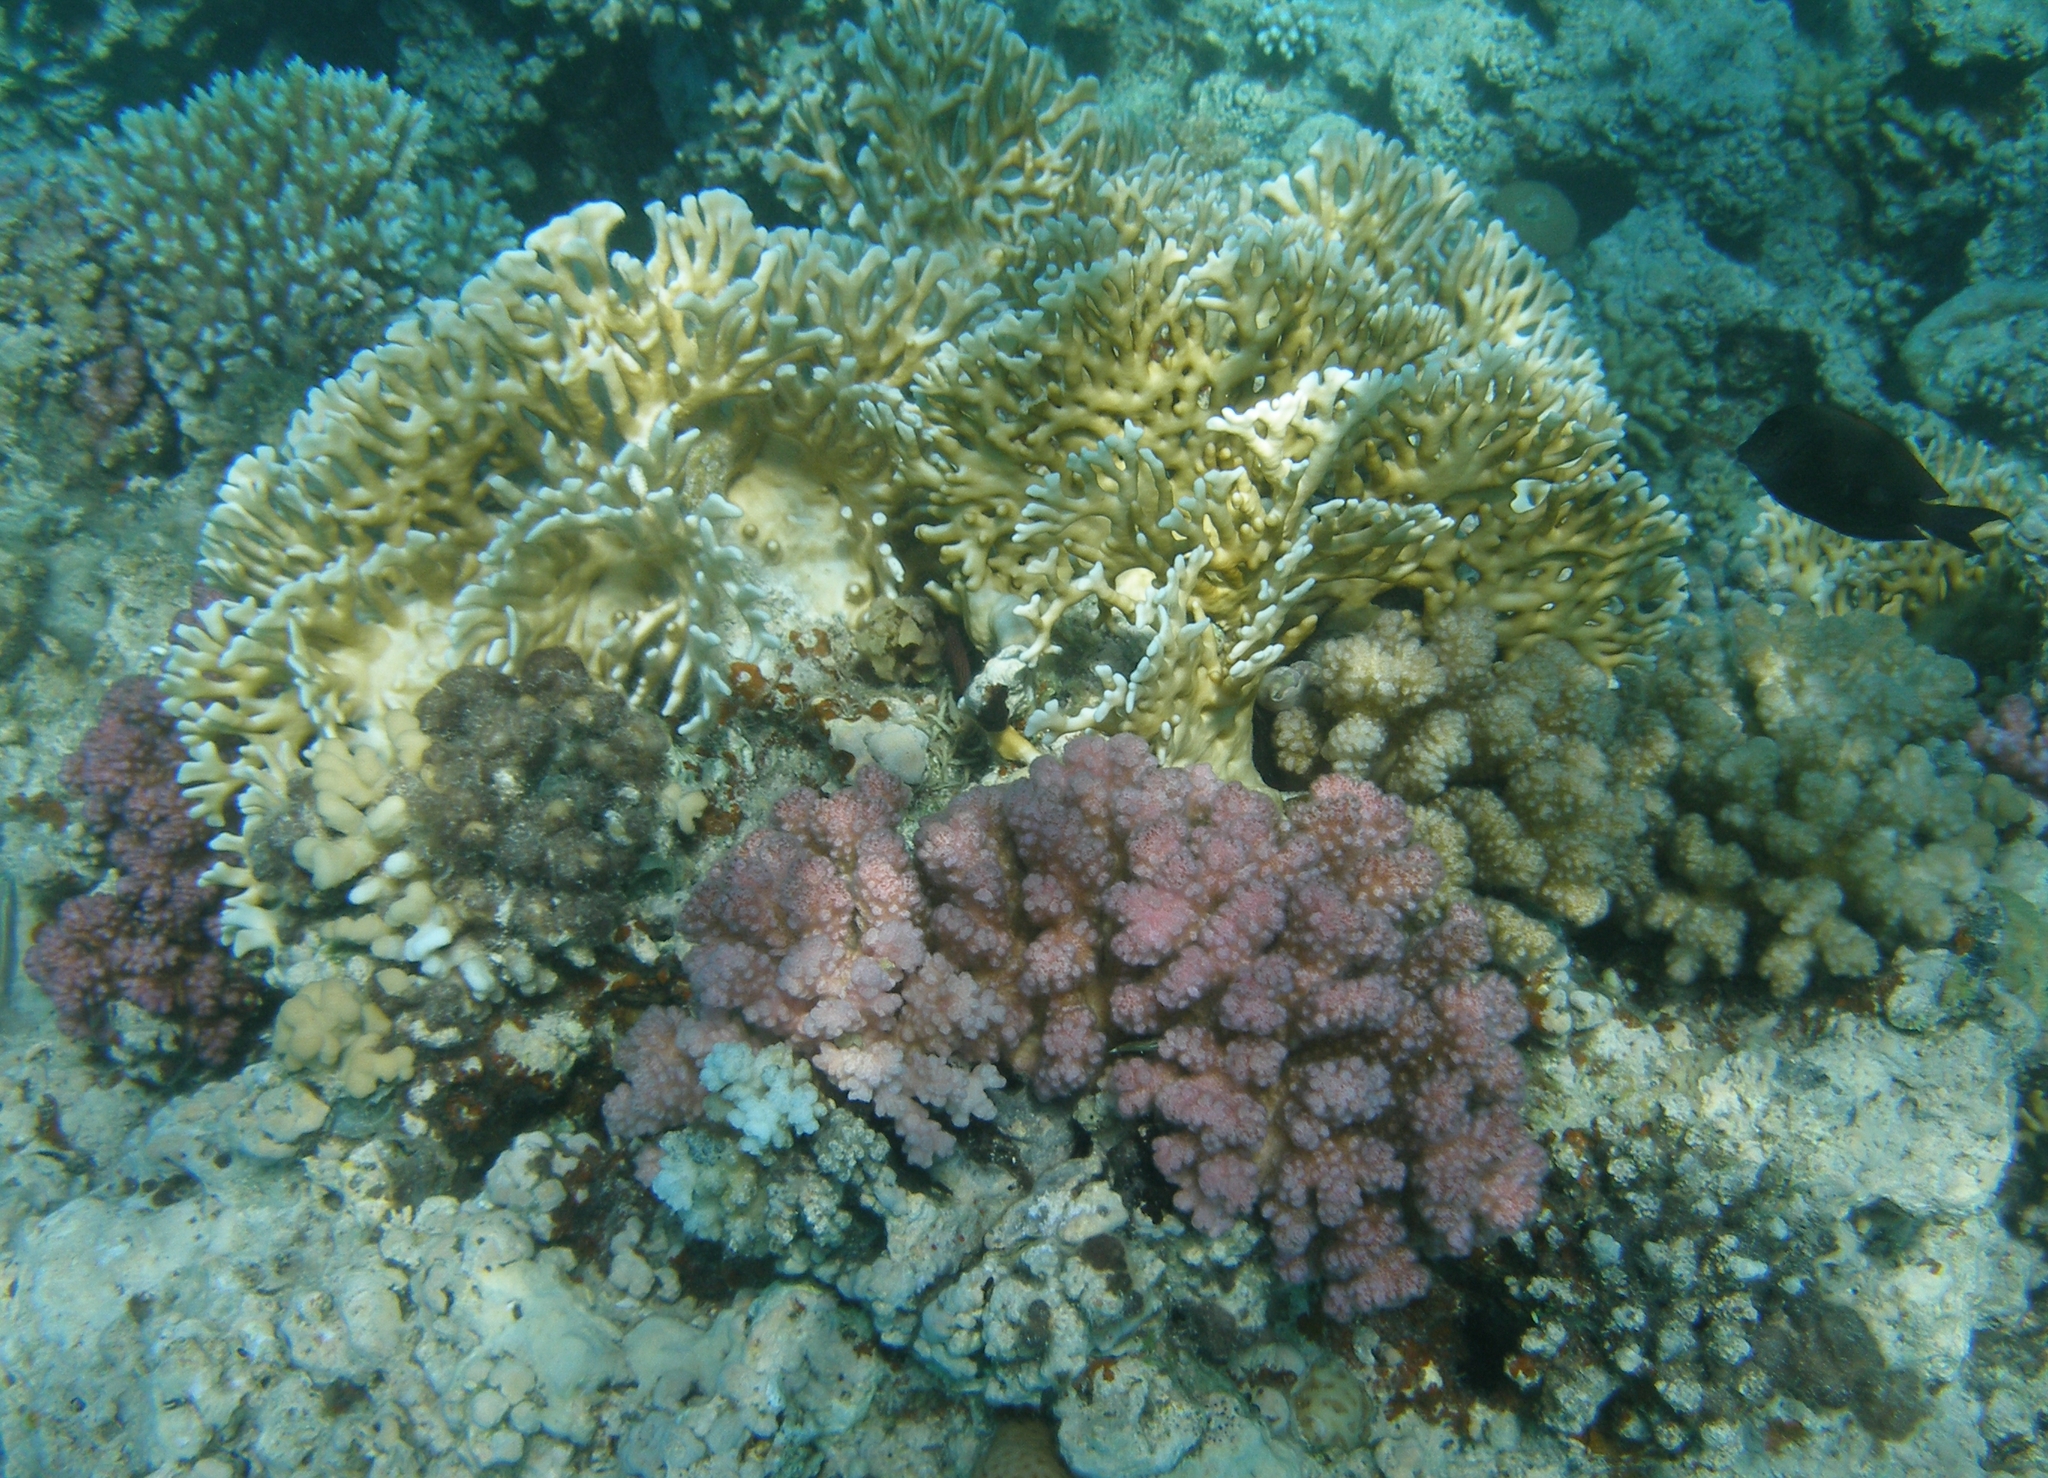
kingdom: Animalia
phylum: Cnidaria
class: Hydrozoa
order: Anthoathecata
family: Milleporidae
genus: Millepora
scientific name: Millepora dichotoma
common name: Ramified fire coral
